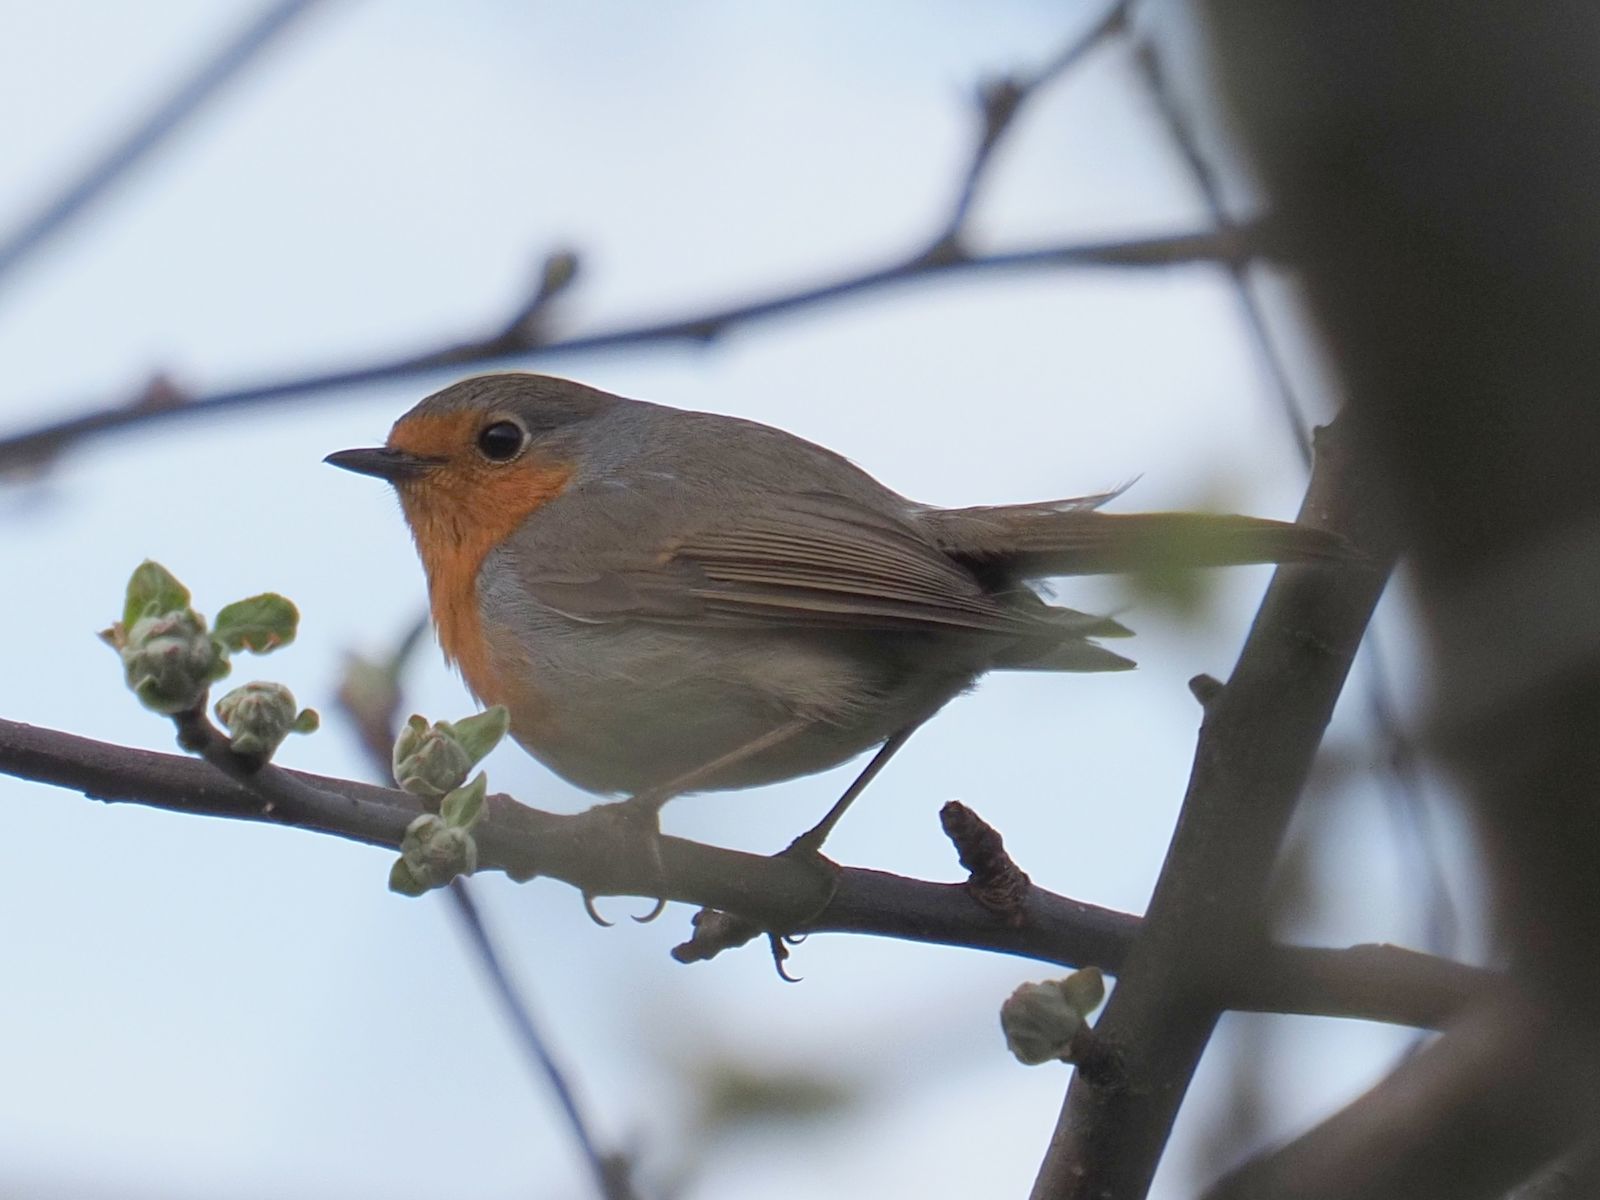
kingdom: Animalia
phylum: Chordata
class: Aves
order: Passeriformes
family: Muscicapidae
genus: Erithacus
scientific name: Erithacus rubecula
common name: European robin
